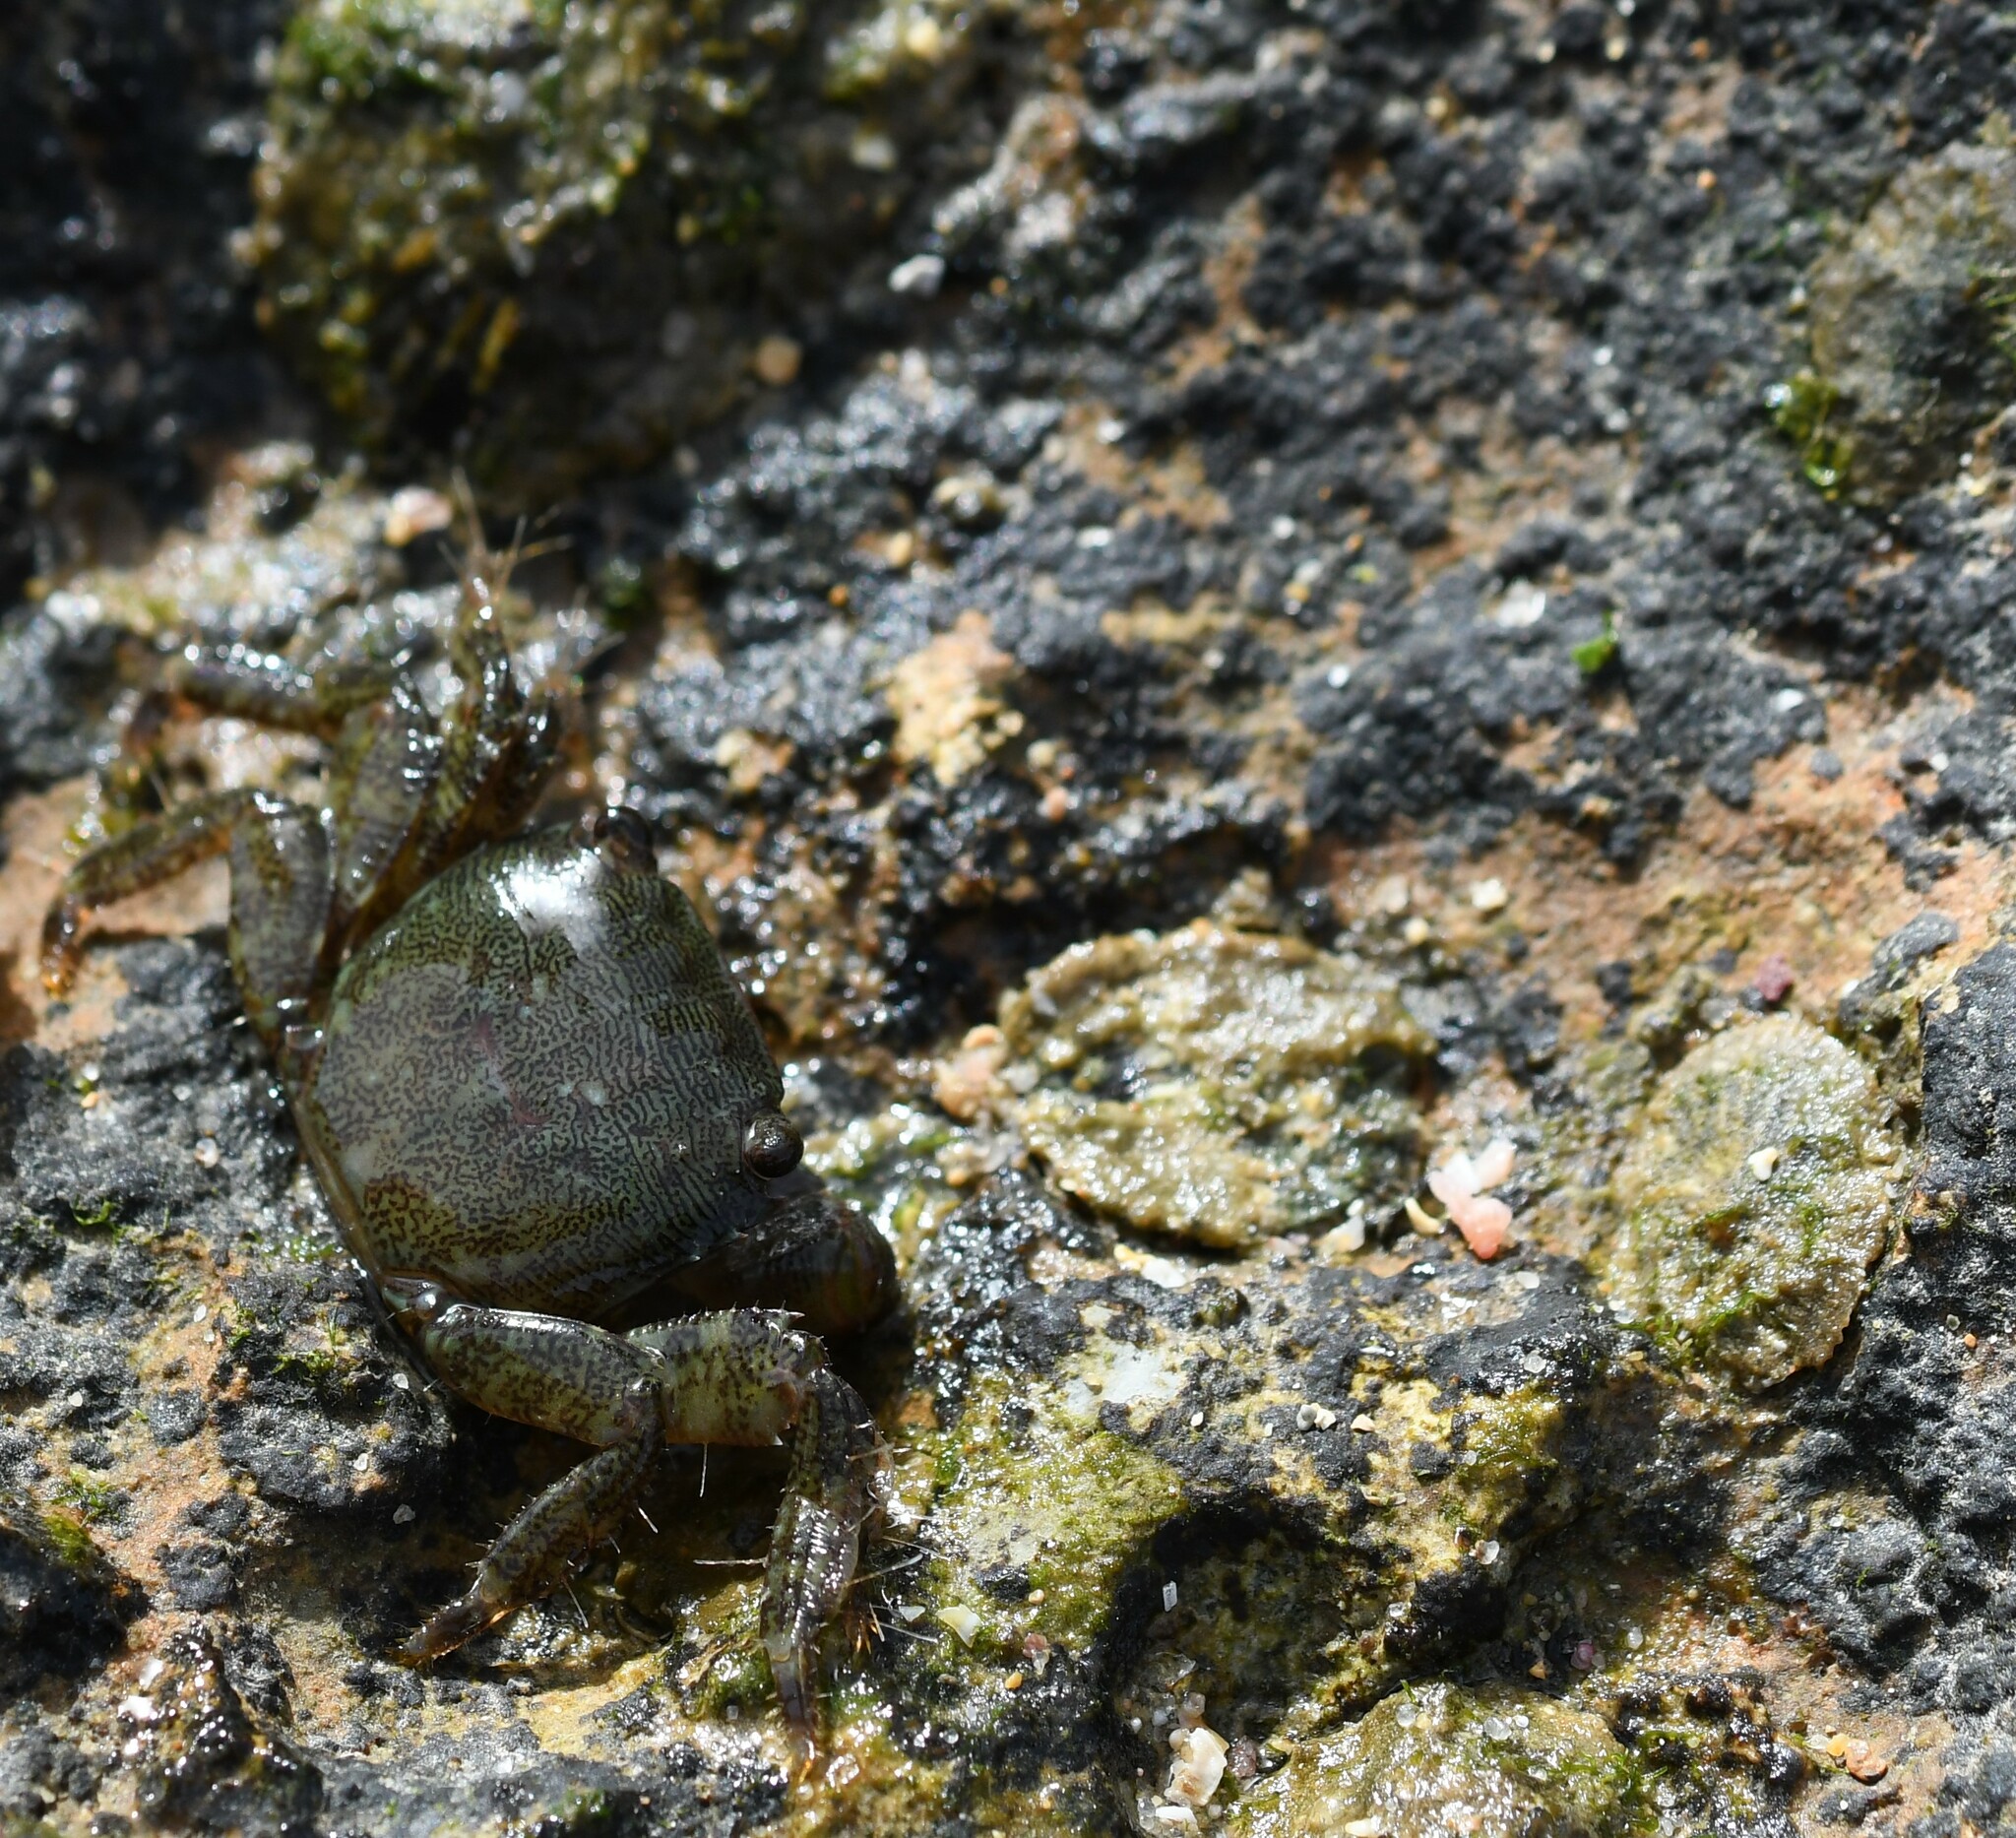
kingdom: Animalia
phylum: Arthropoda
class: Malacostraca
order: Decapoda
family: Grapsidae
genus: Pachygrapsus
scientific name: Pachygrapsus marmoratus
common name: Marbled rock crab
